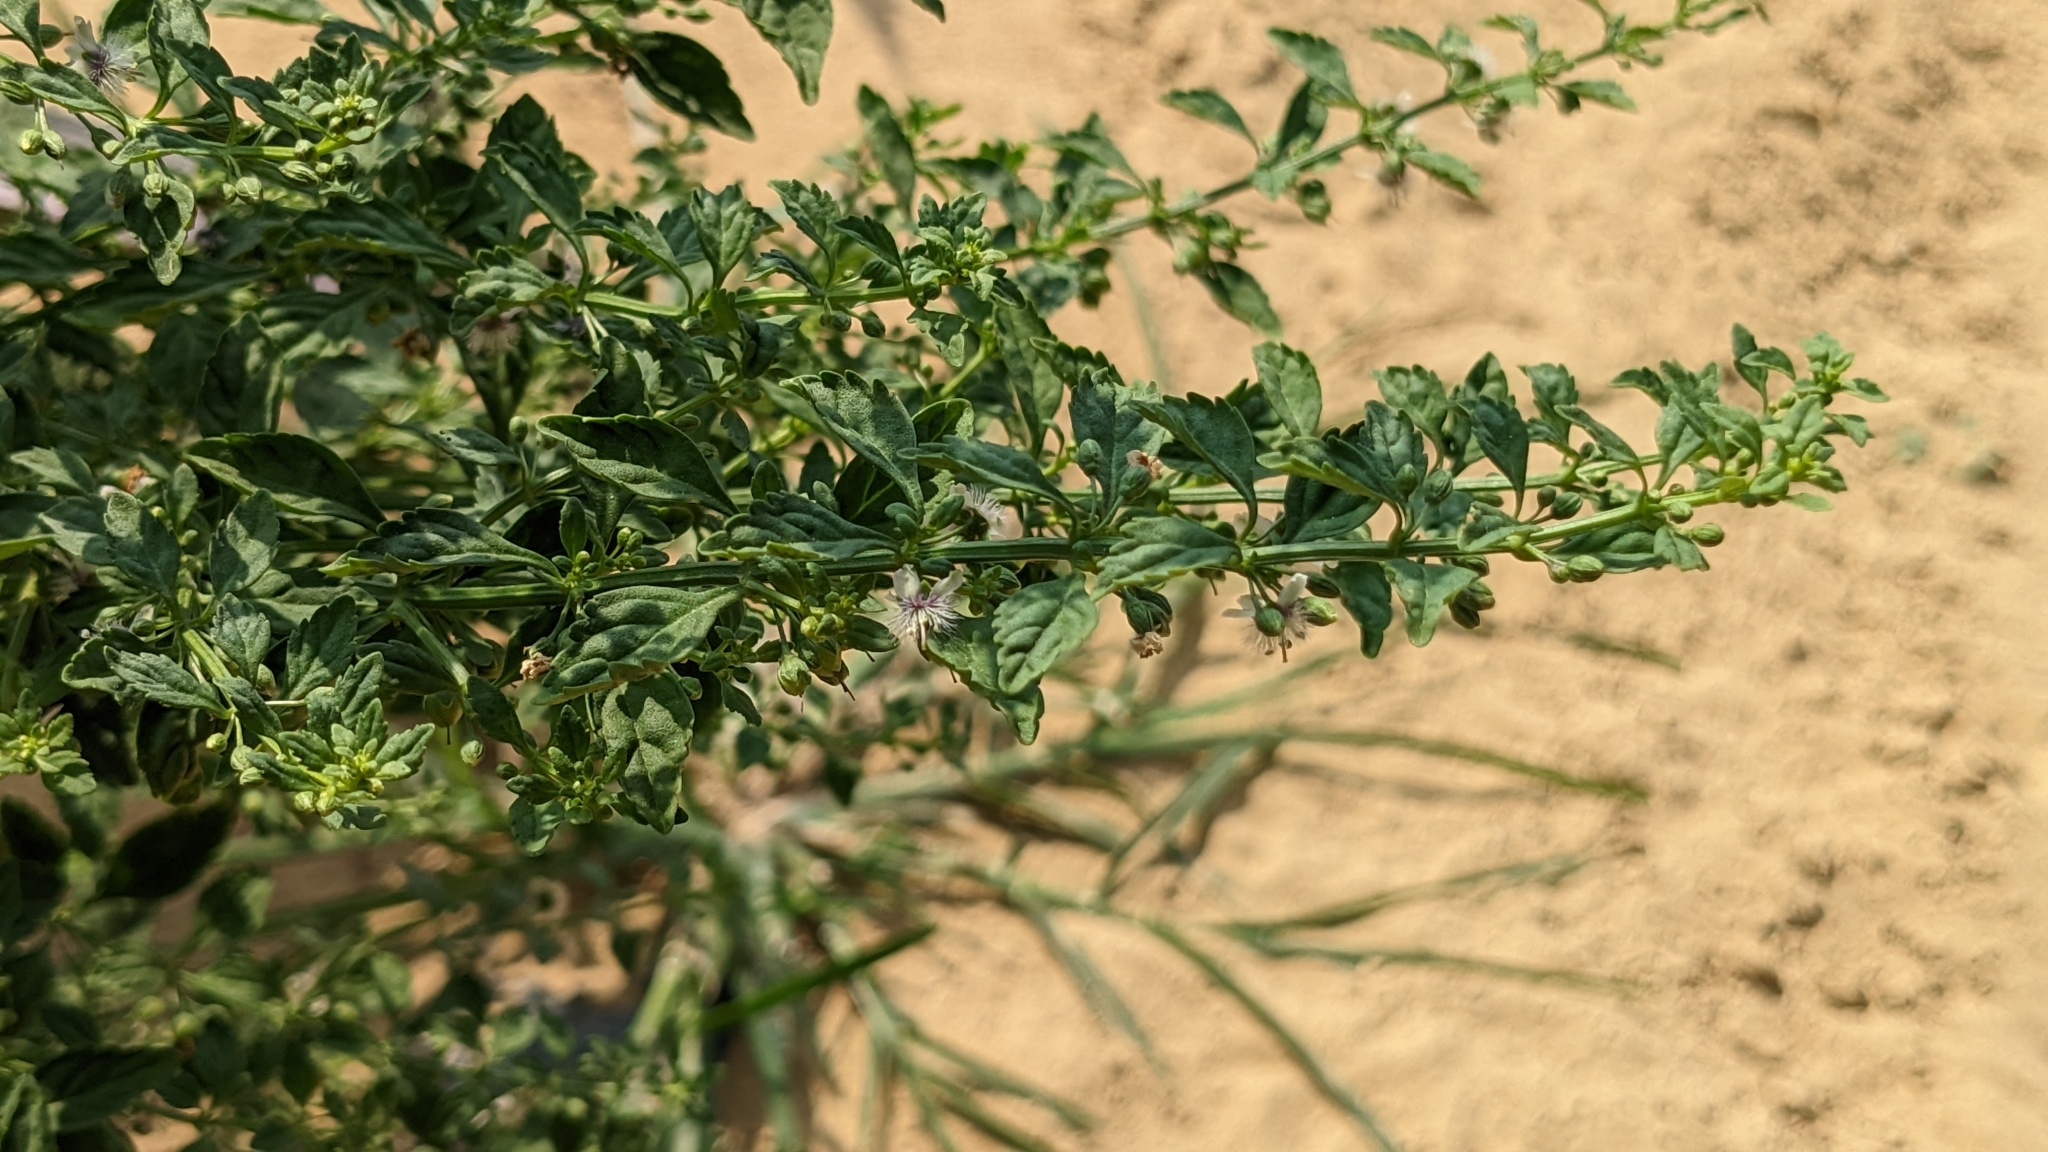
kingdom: Plantae
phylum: Tracheophyta
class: Magnoliopsida
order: Lamiales
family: Plantaginaceae
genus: Scoparia
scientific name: Scoparia dulcis
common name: Scoparia-weed
